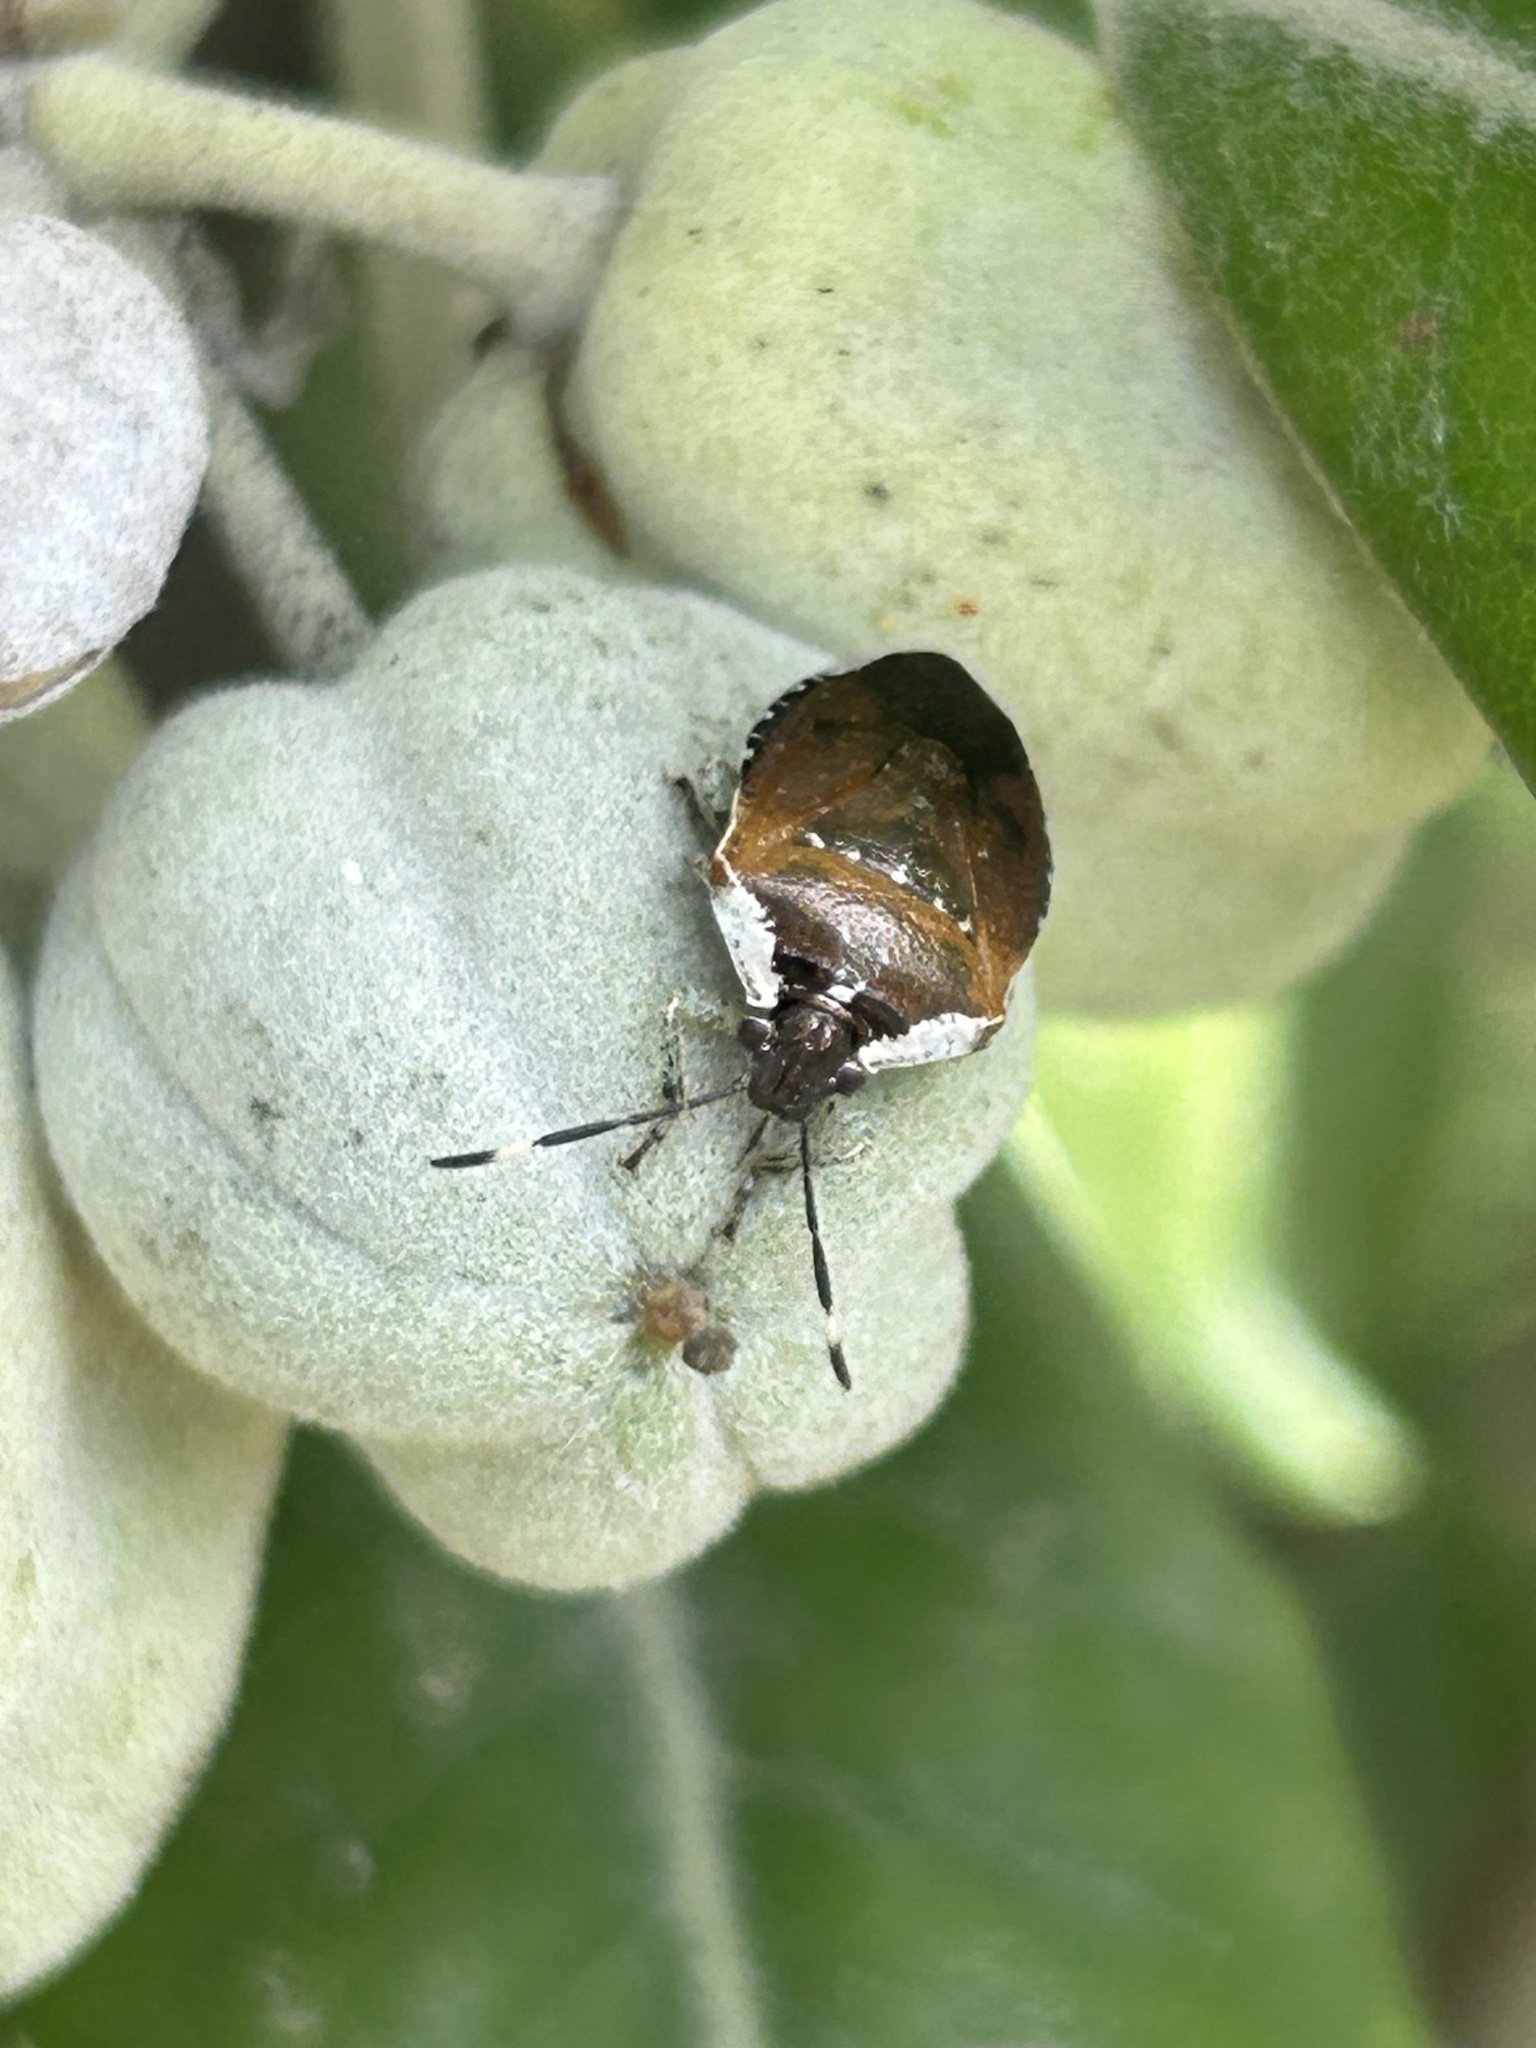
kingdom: Animalia
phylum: Arthropoda
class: Insecta
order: Hemiptera
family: Pentatomidae
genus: Monteithiella
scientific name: Monteithiella
